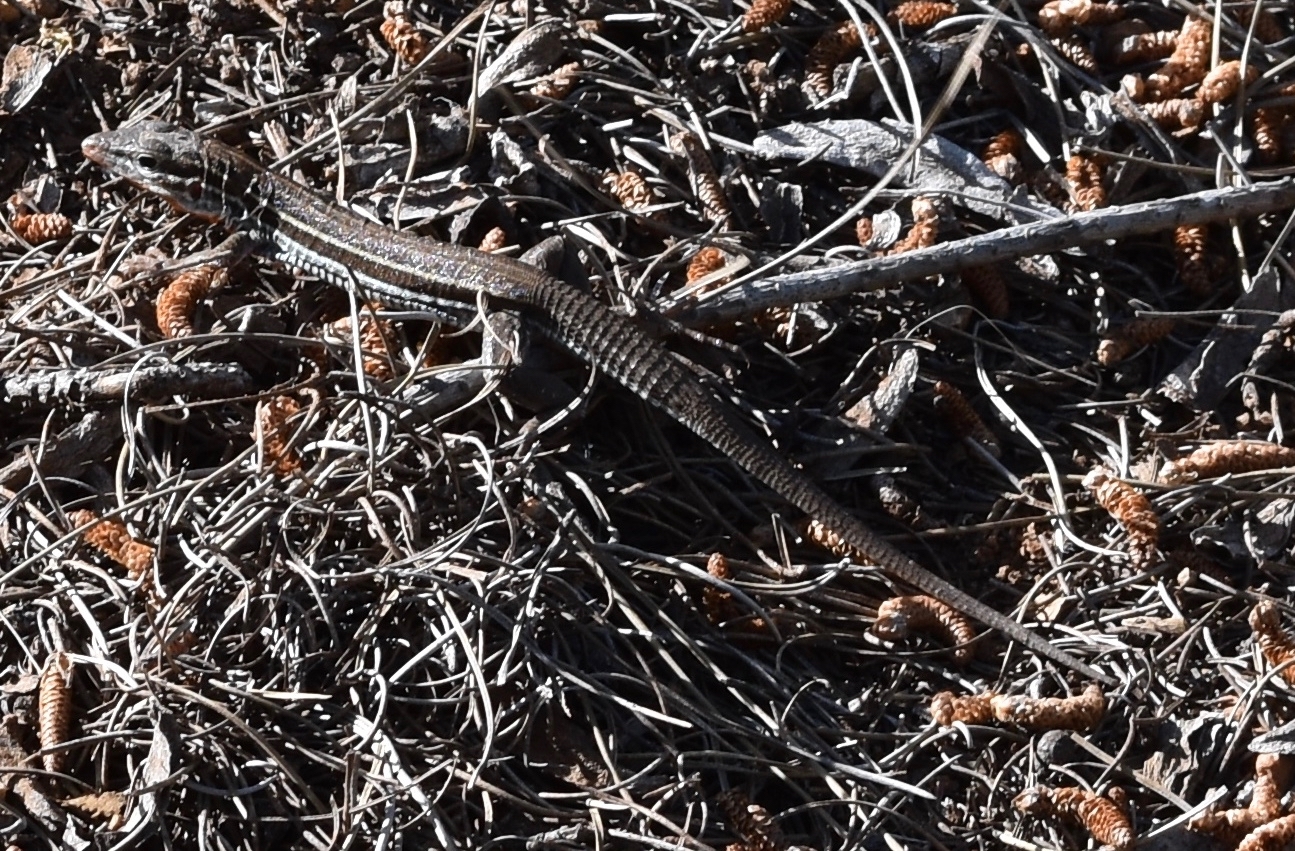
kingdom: Animalia
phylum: Chordata
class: Squamata
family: Teiidae
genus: Aspidoscelis
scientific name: Aspidoscelis hyperythrus
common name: Orange-throated race-runner
